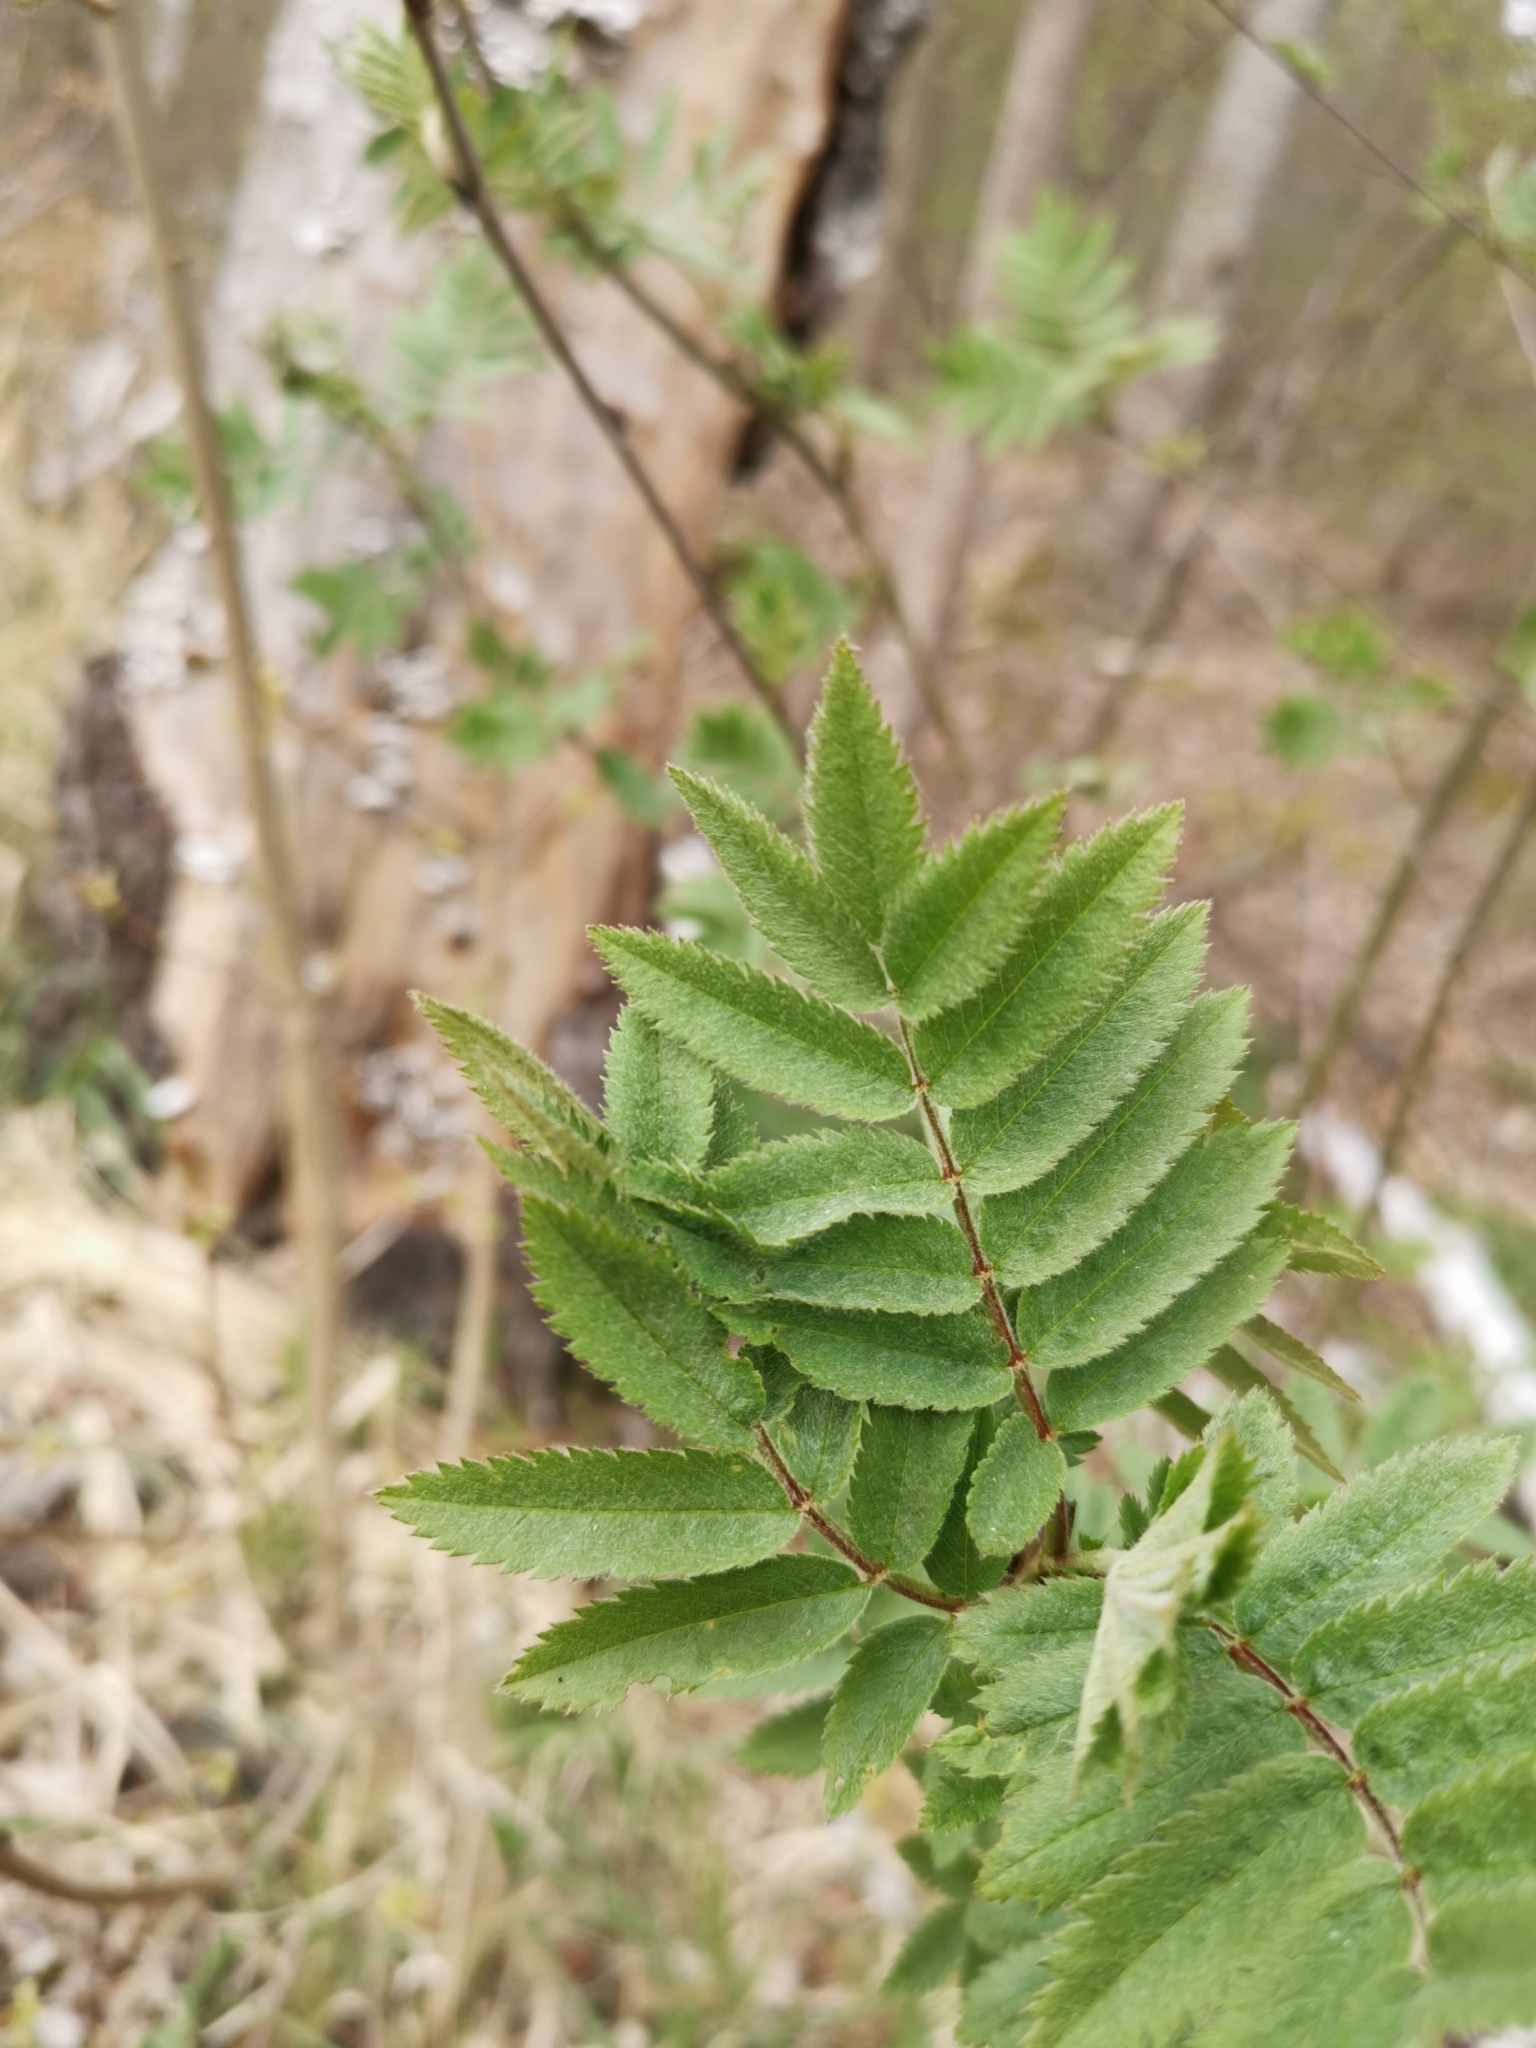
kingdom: Plantae
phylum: Tracheophyta
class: Magnoliopsida
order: Rosales
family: Rosaceae
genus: Sorbus
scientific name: Sorbus aucuparia
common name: Rowan
